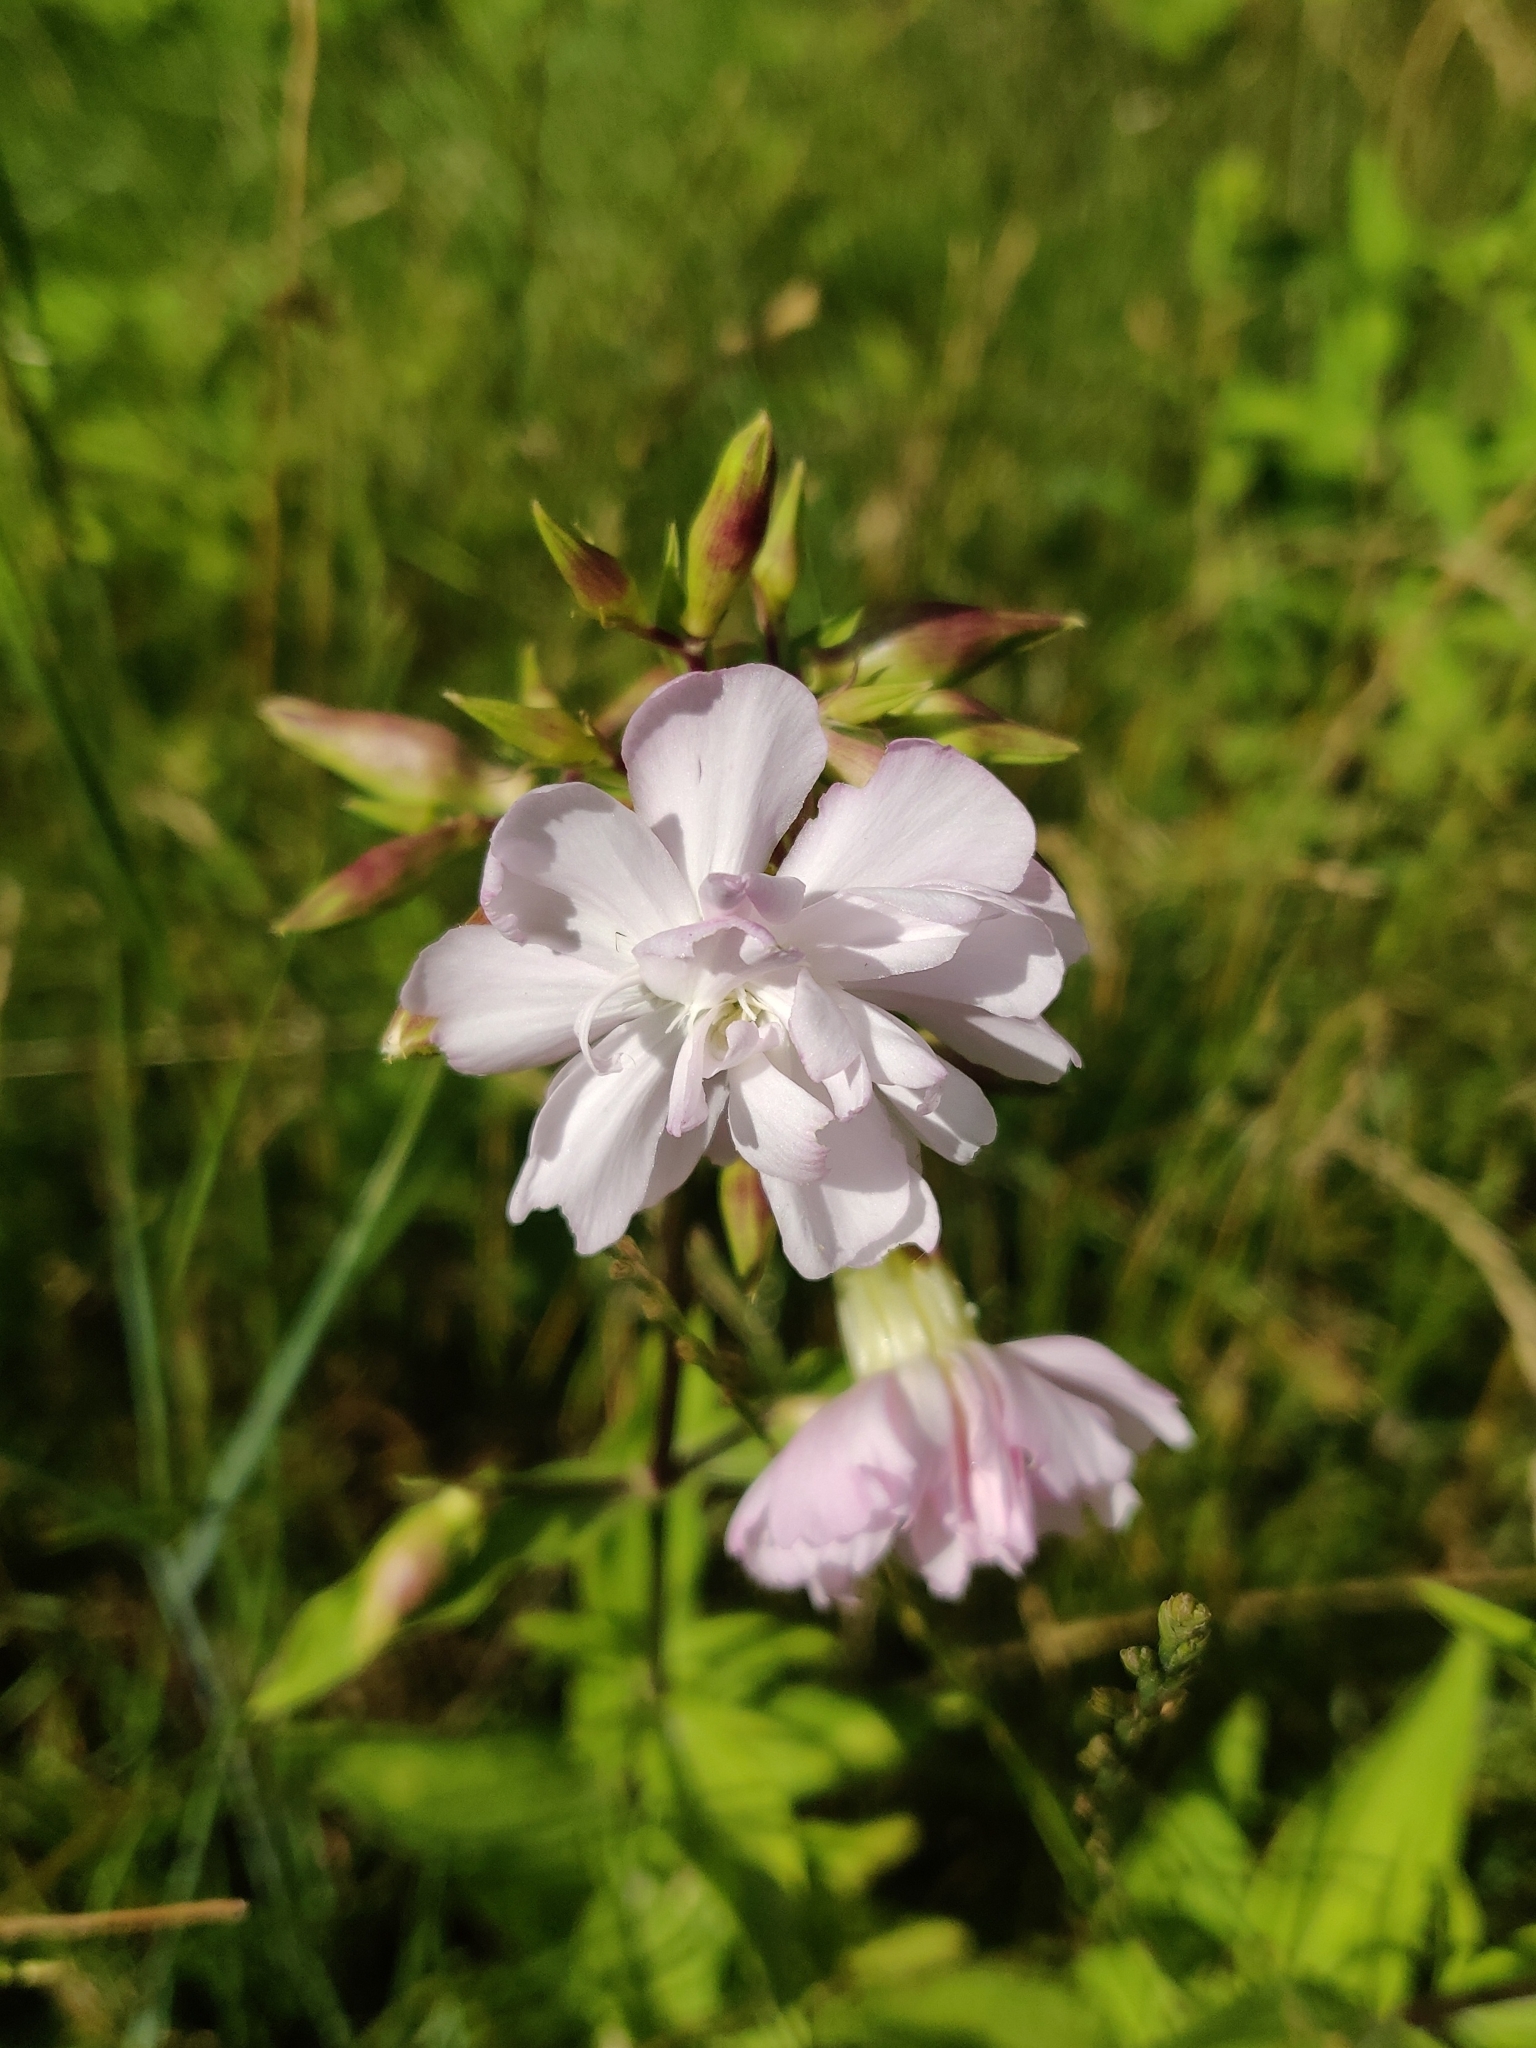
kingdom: Plantae
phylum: Tracheophyta
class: Magnoliopsida
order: Caryophyllales
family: Caryophyllaceae
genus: Saponaria
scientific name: Saponaria officinalis
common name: Soapwort
